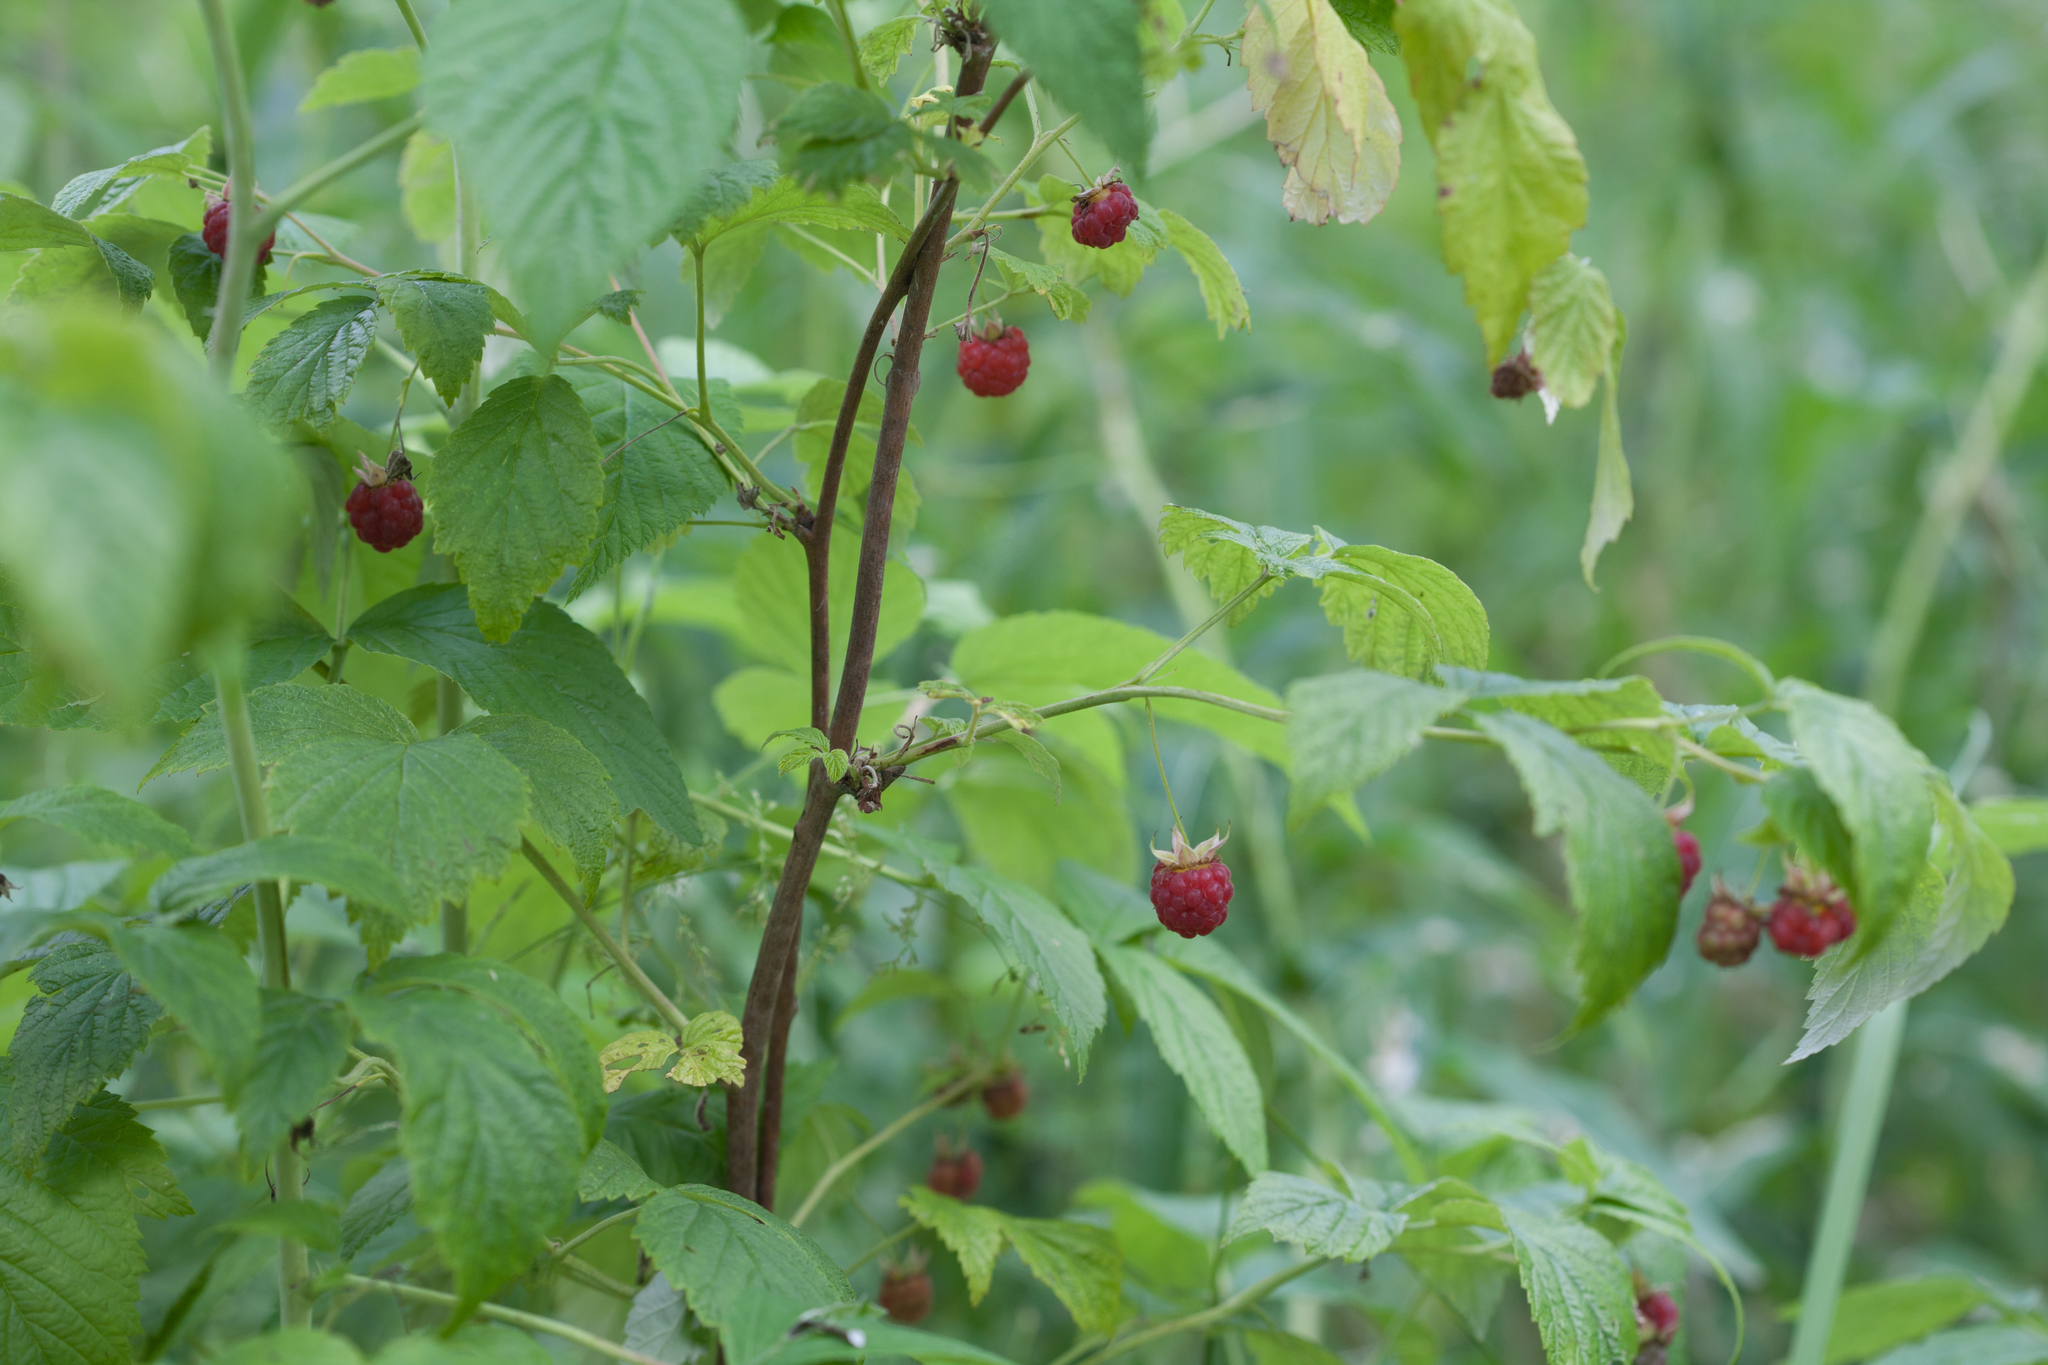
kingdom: Plantae
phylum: Tracheophyta
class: Magnoliopsida
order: Rosales
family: Rosaceae
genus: Rubus
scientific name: Rubus idaeus
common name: Raspberry
